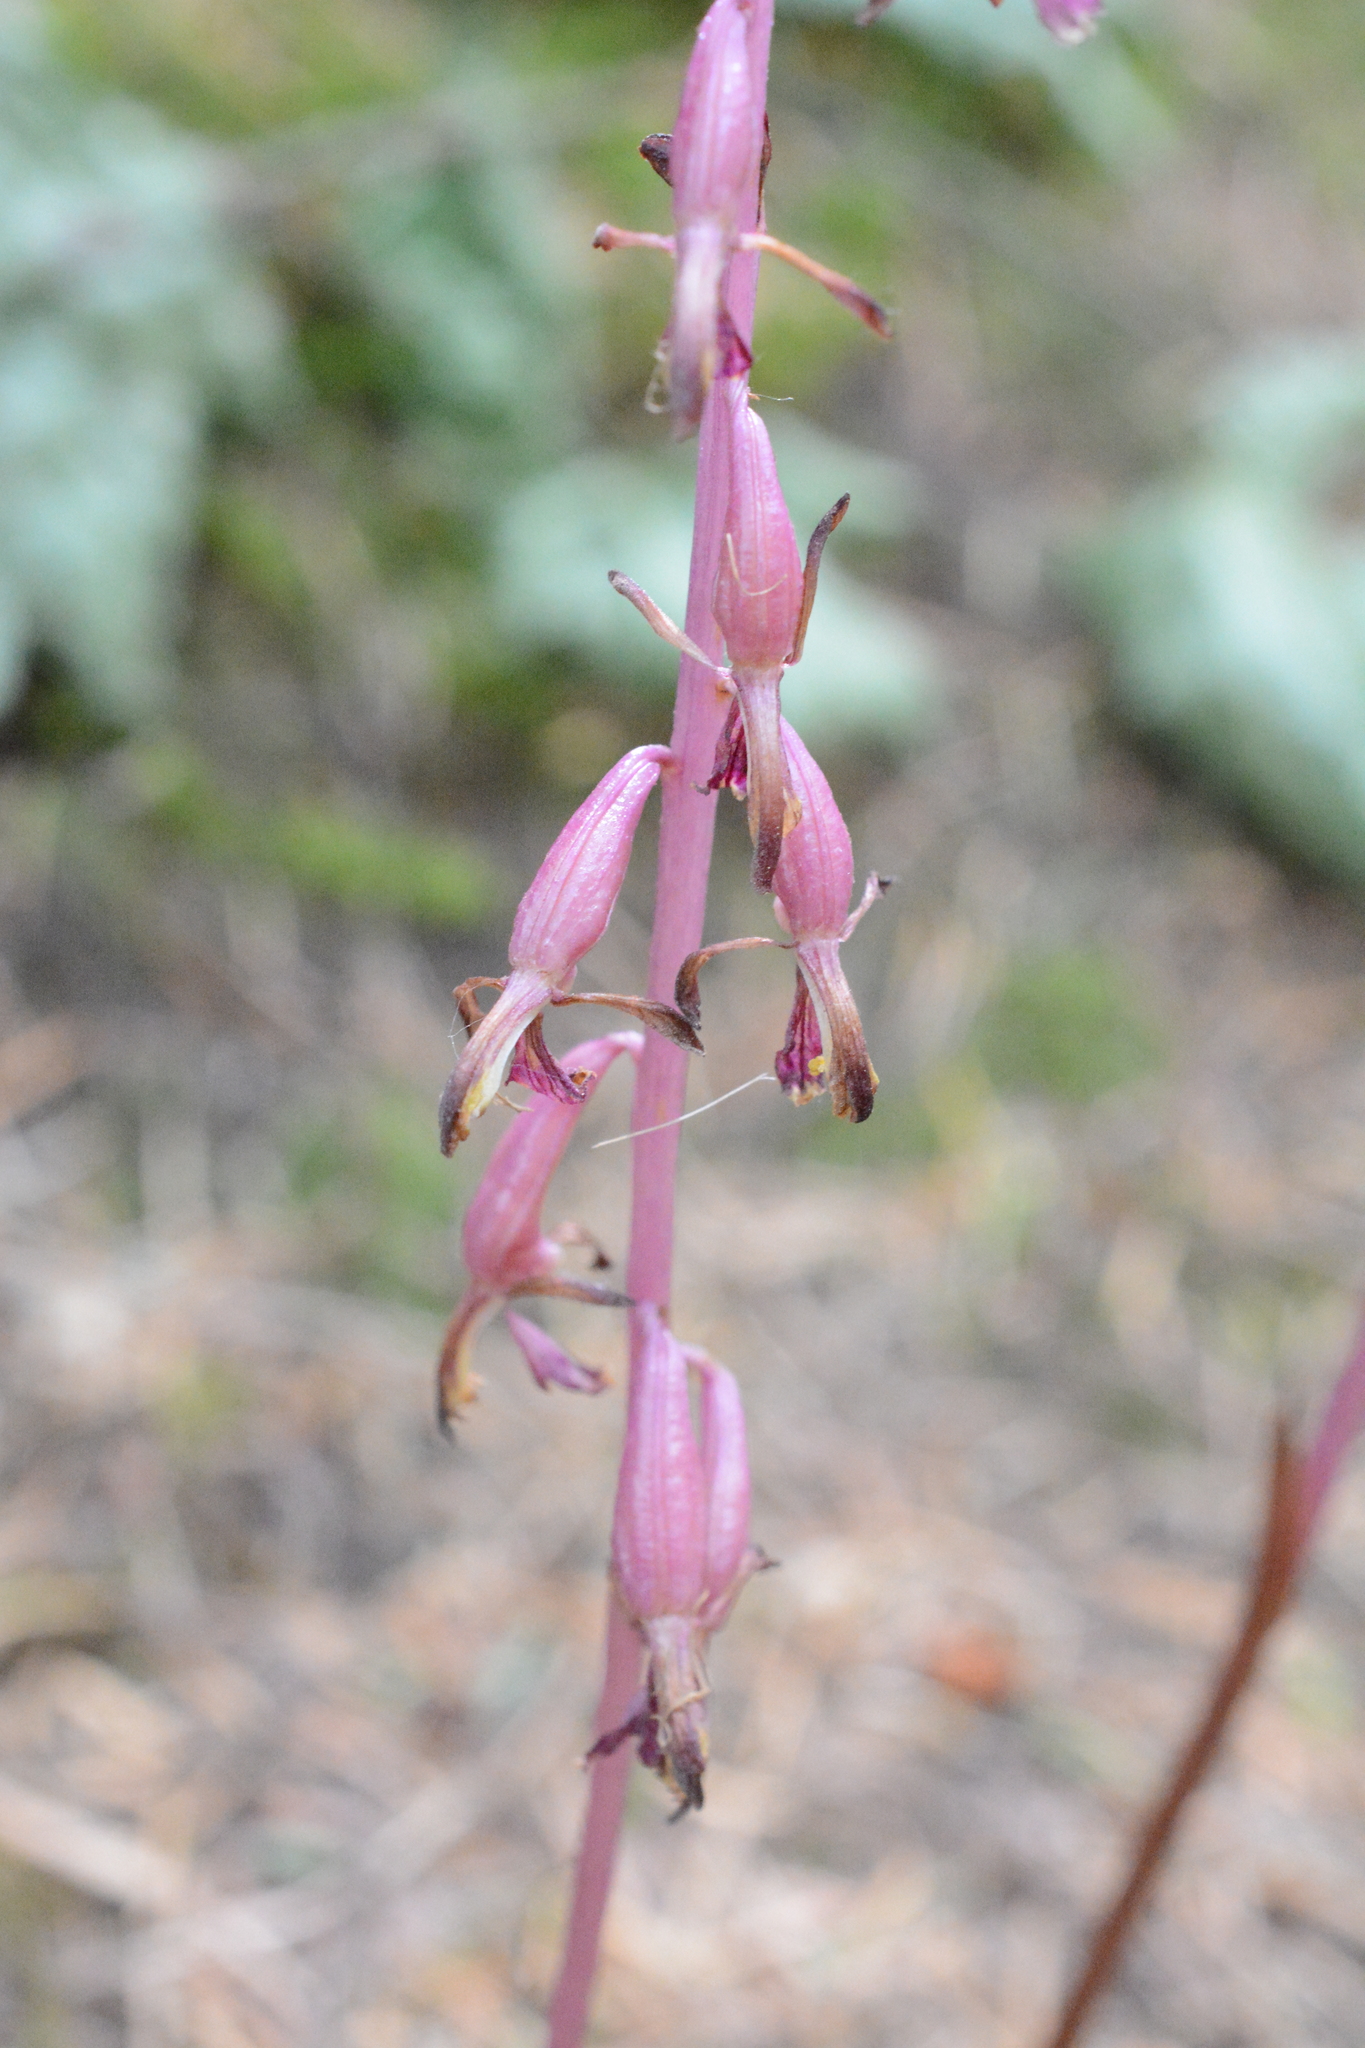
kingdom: Plantae
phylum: Tracheophyta
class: Liliopsida
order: Asparagales
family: Orchidaceae
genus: Corallorhiza
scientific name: Corallorhiza mertensiana
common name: Pacific coralroot
